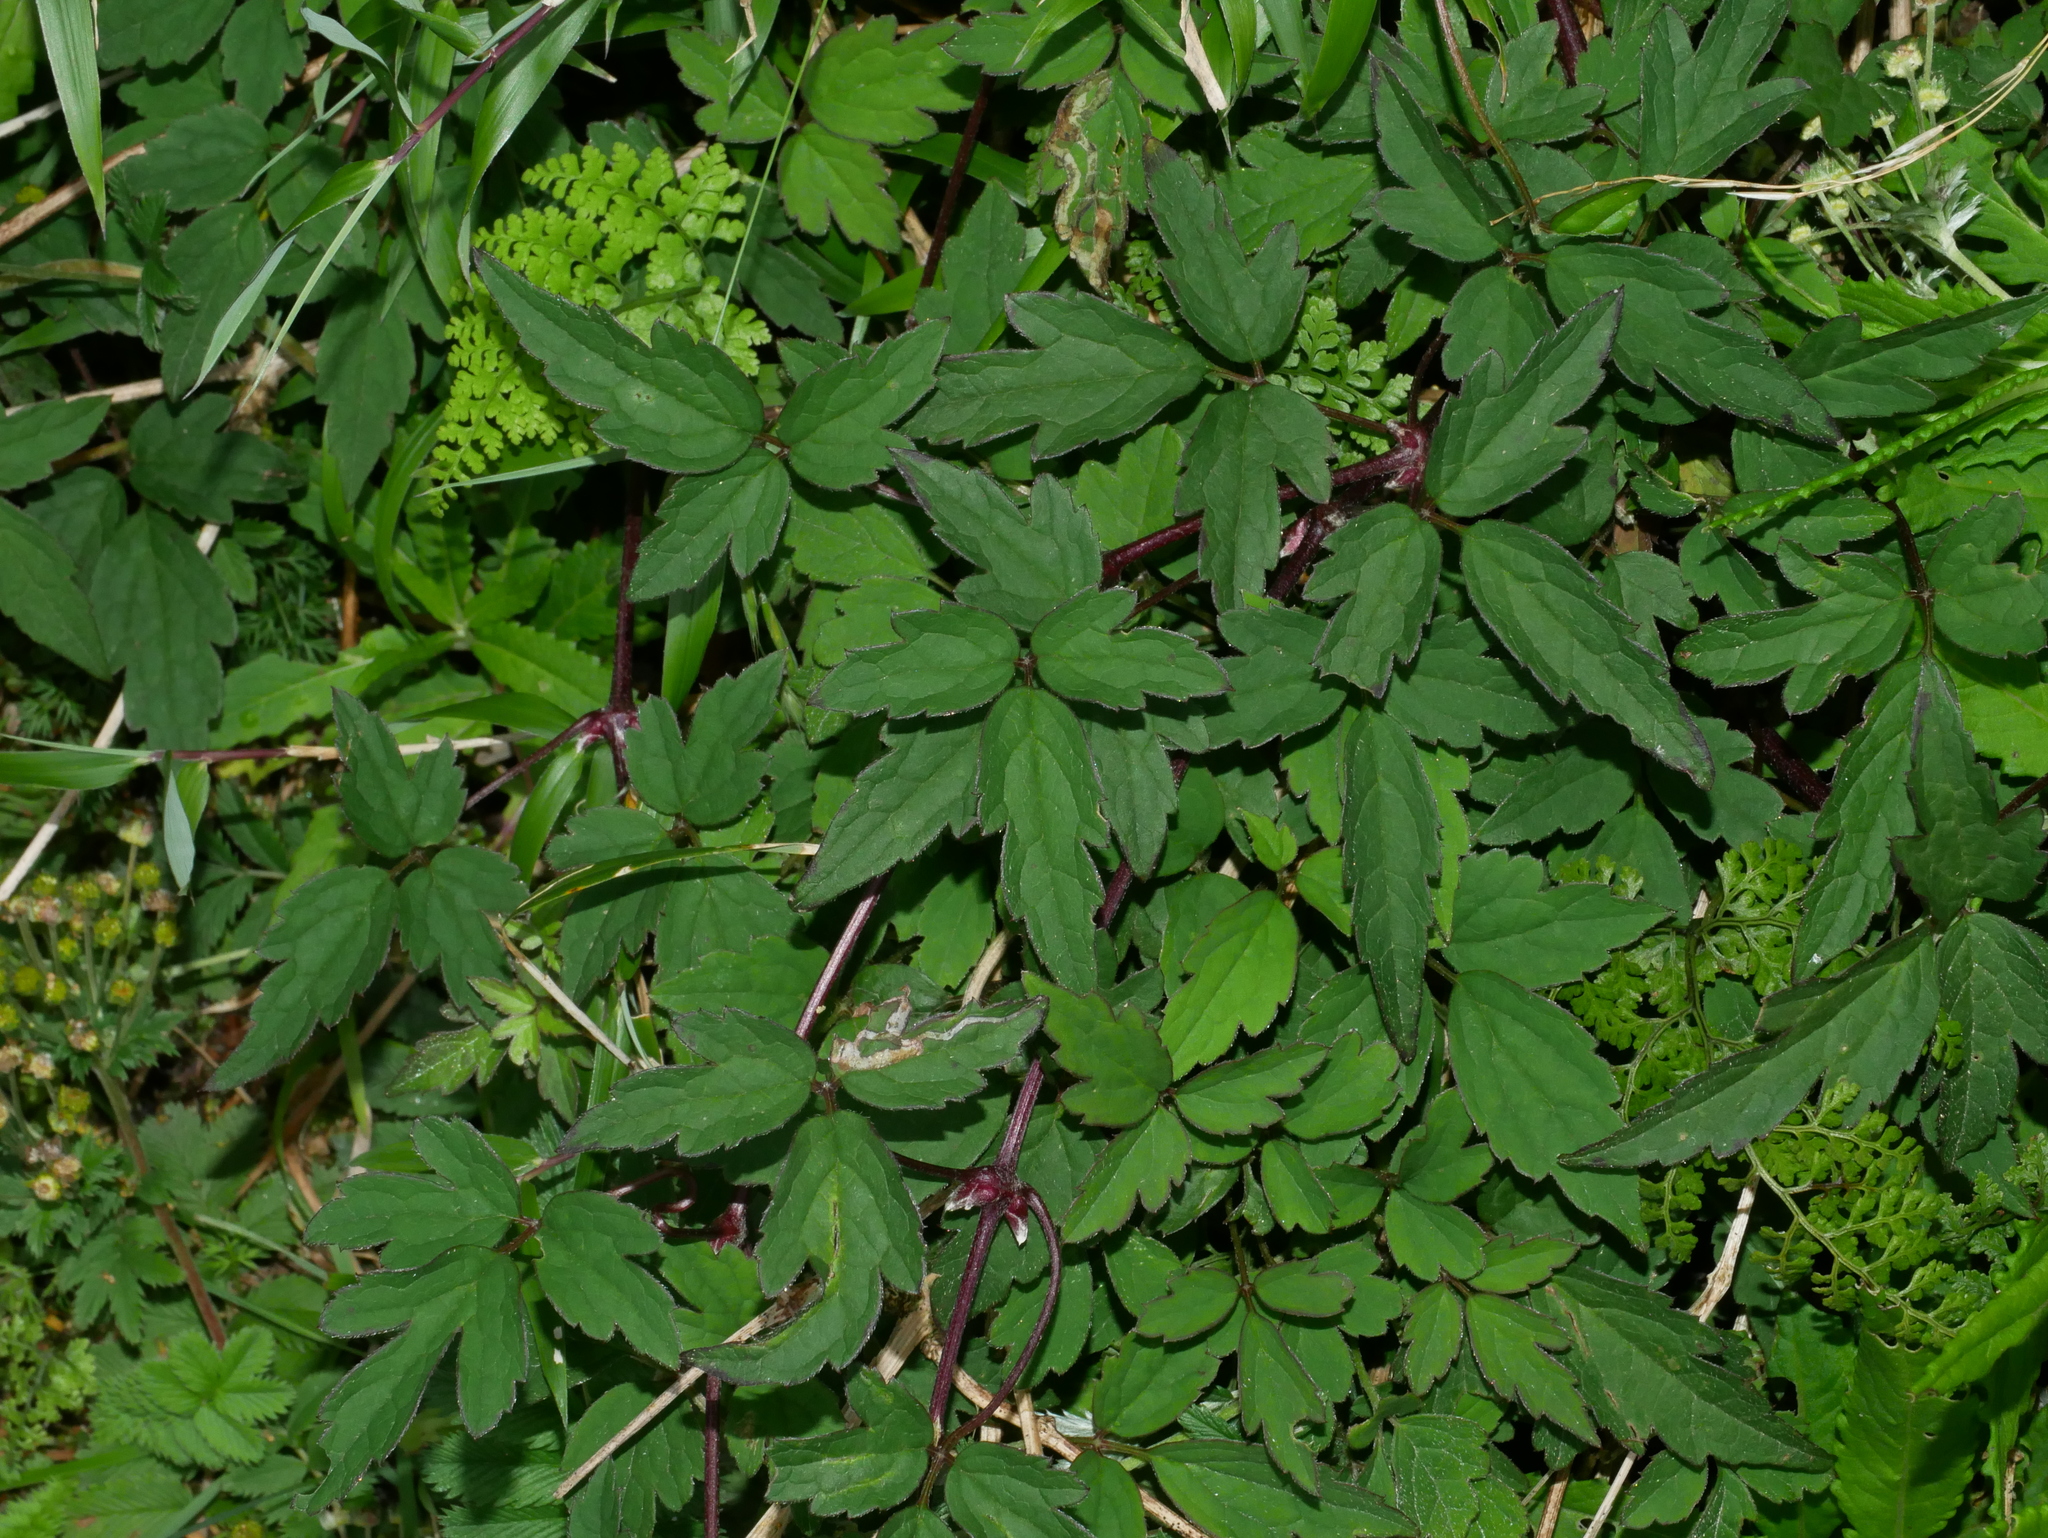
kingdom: Plantae
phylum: Tracheophyta
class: Magnoliopsida
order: Ranunculales
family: Ranunculaceae
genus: Clematis
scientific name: Clematis montana
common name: Himalayan clematis
